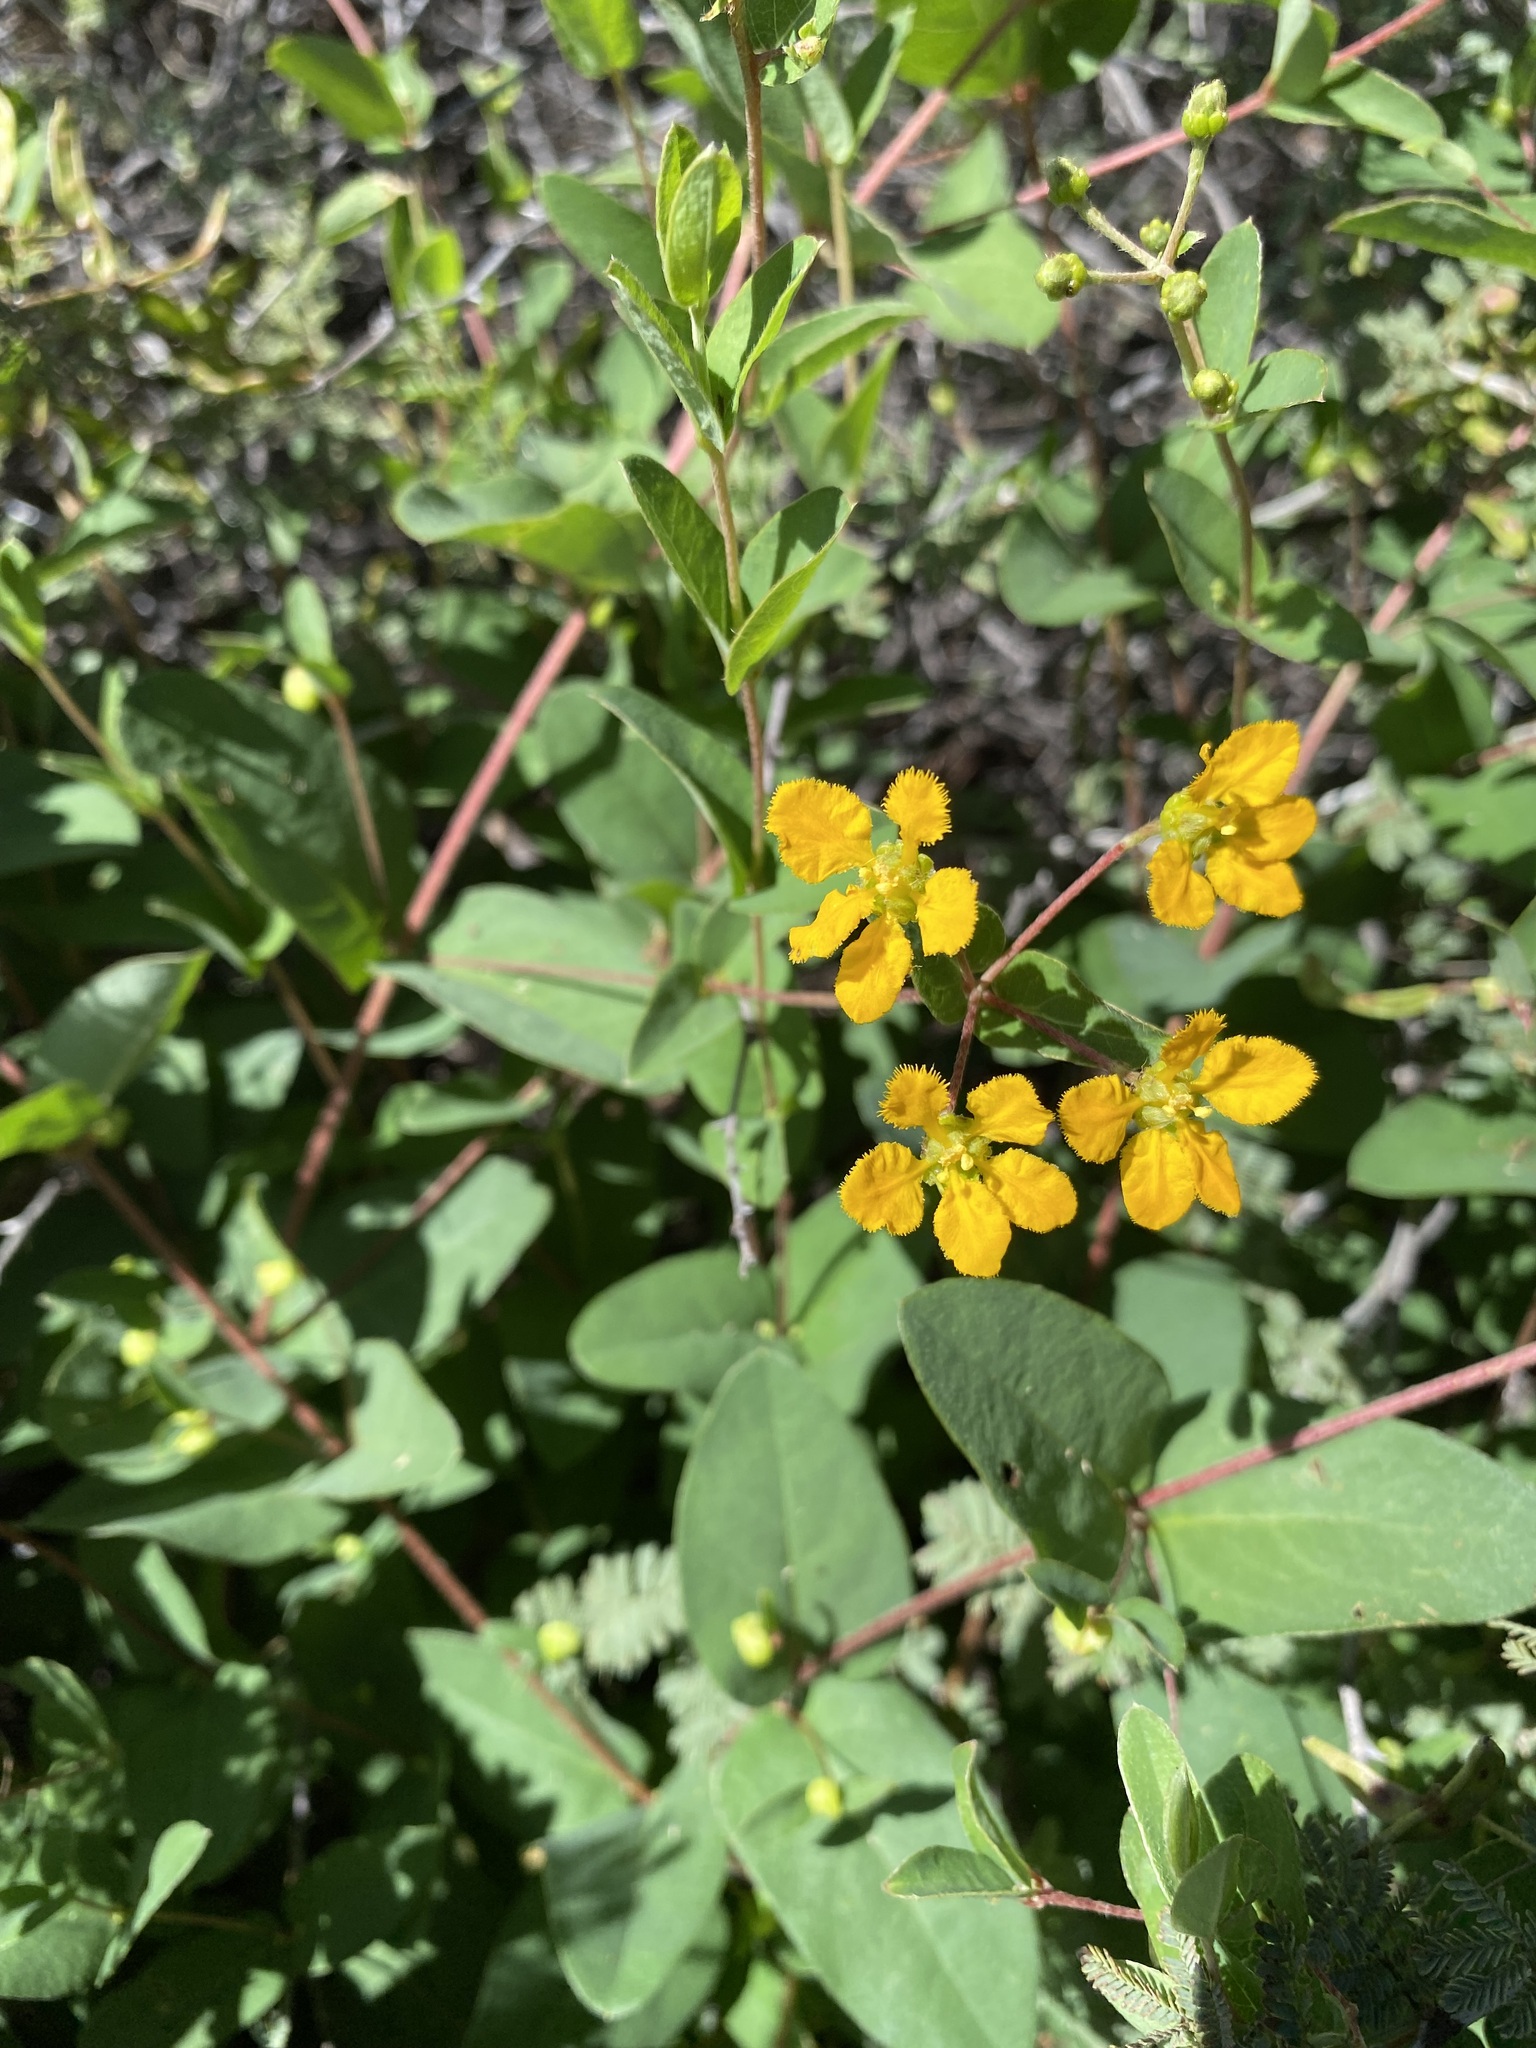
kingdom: Plantae
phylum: Tracheophyta
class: Magnoliopsida
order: Malpighiales
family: Malpighiaceae
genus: Aspicarpa
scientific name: Aspicarpa hirtella
